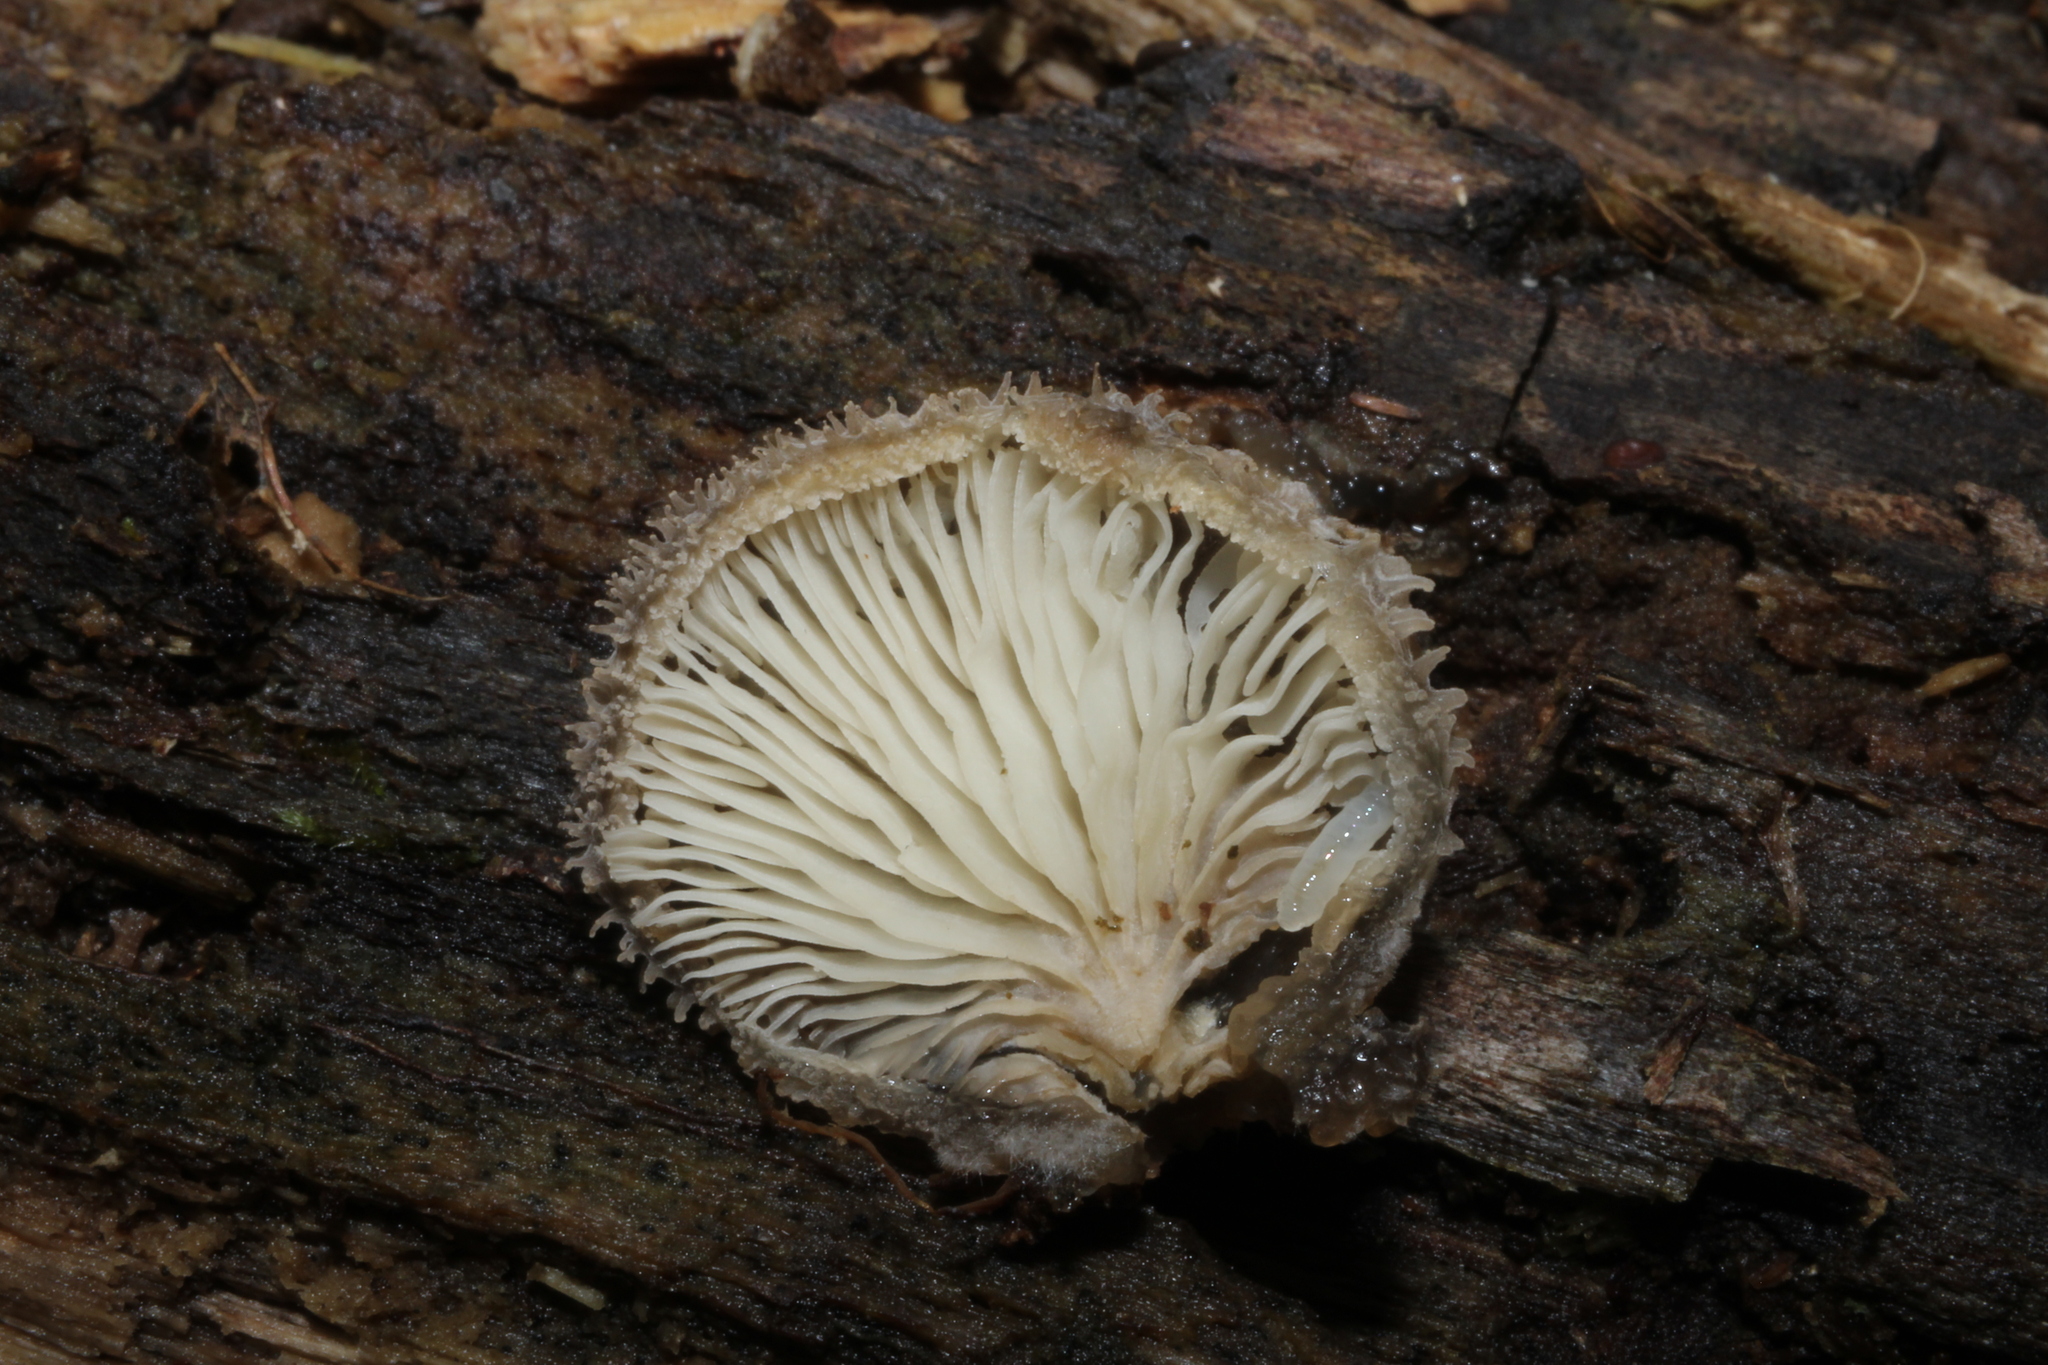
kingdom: Fungi
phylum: Basidiomycota
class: Agaricomycetes
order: Agaricales
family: Pleurotaceae
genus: Hohenbuehelia
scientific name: Hohenbuehelia mastrucata
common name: Woolly oyster
